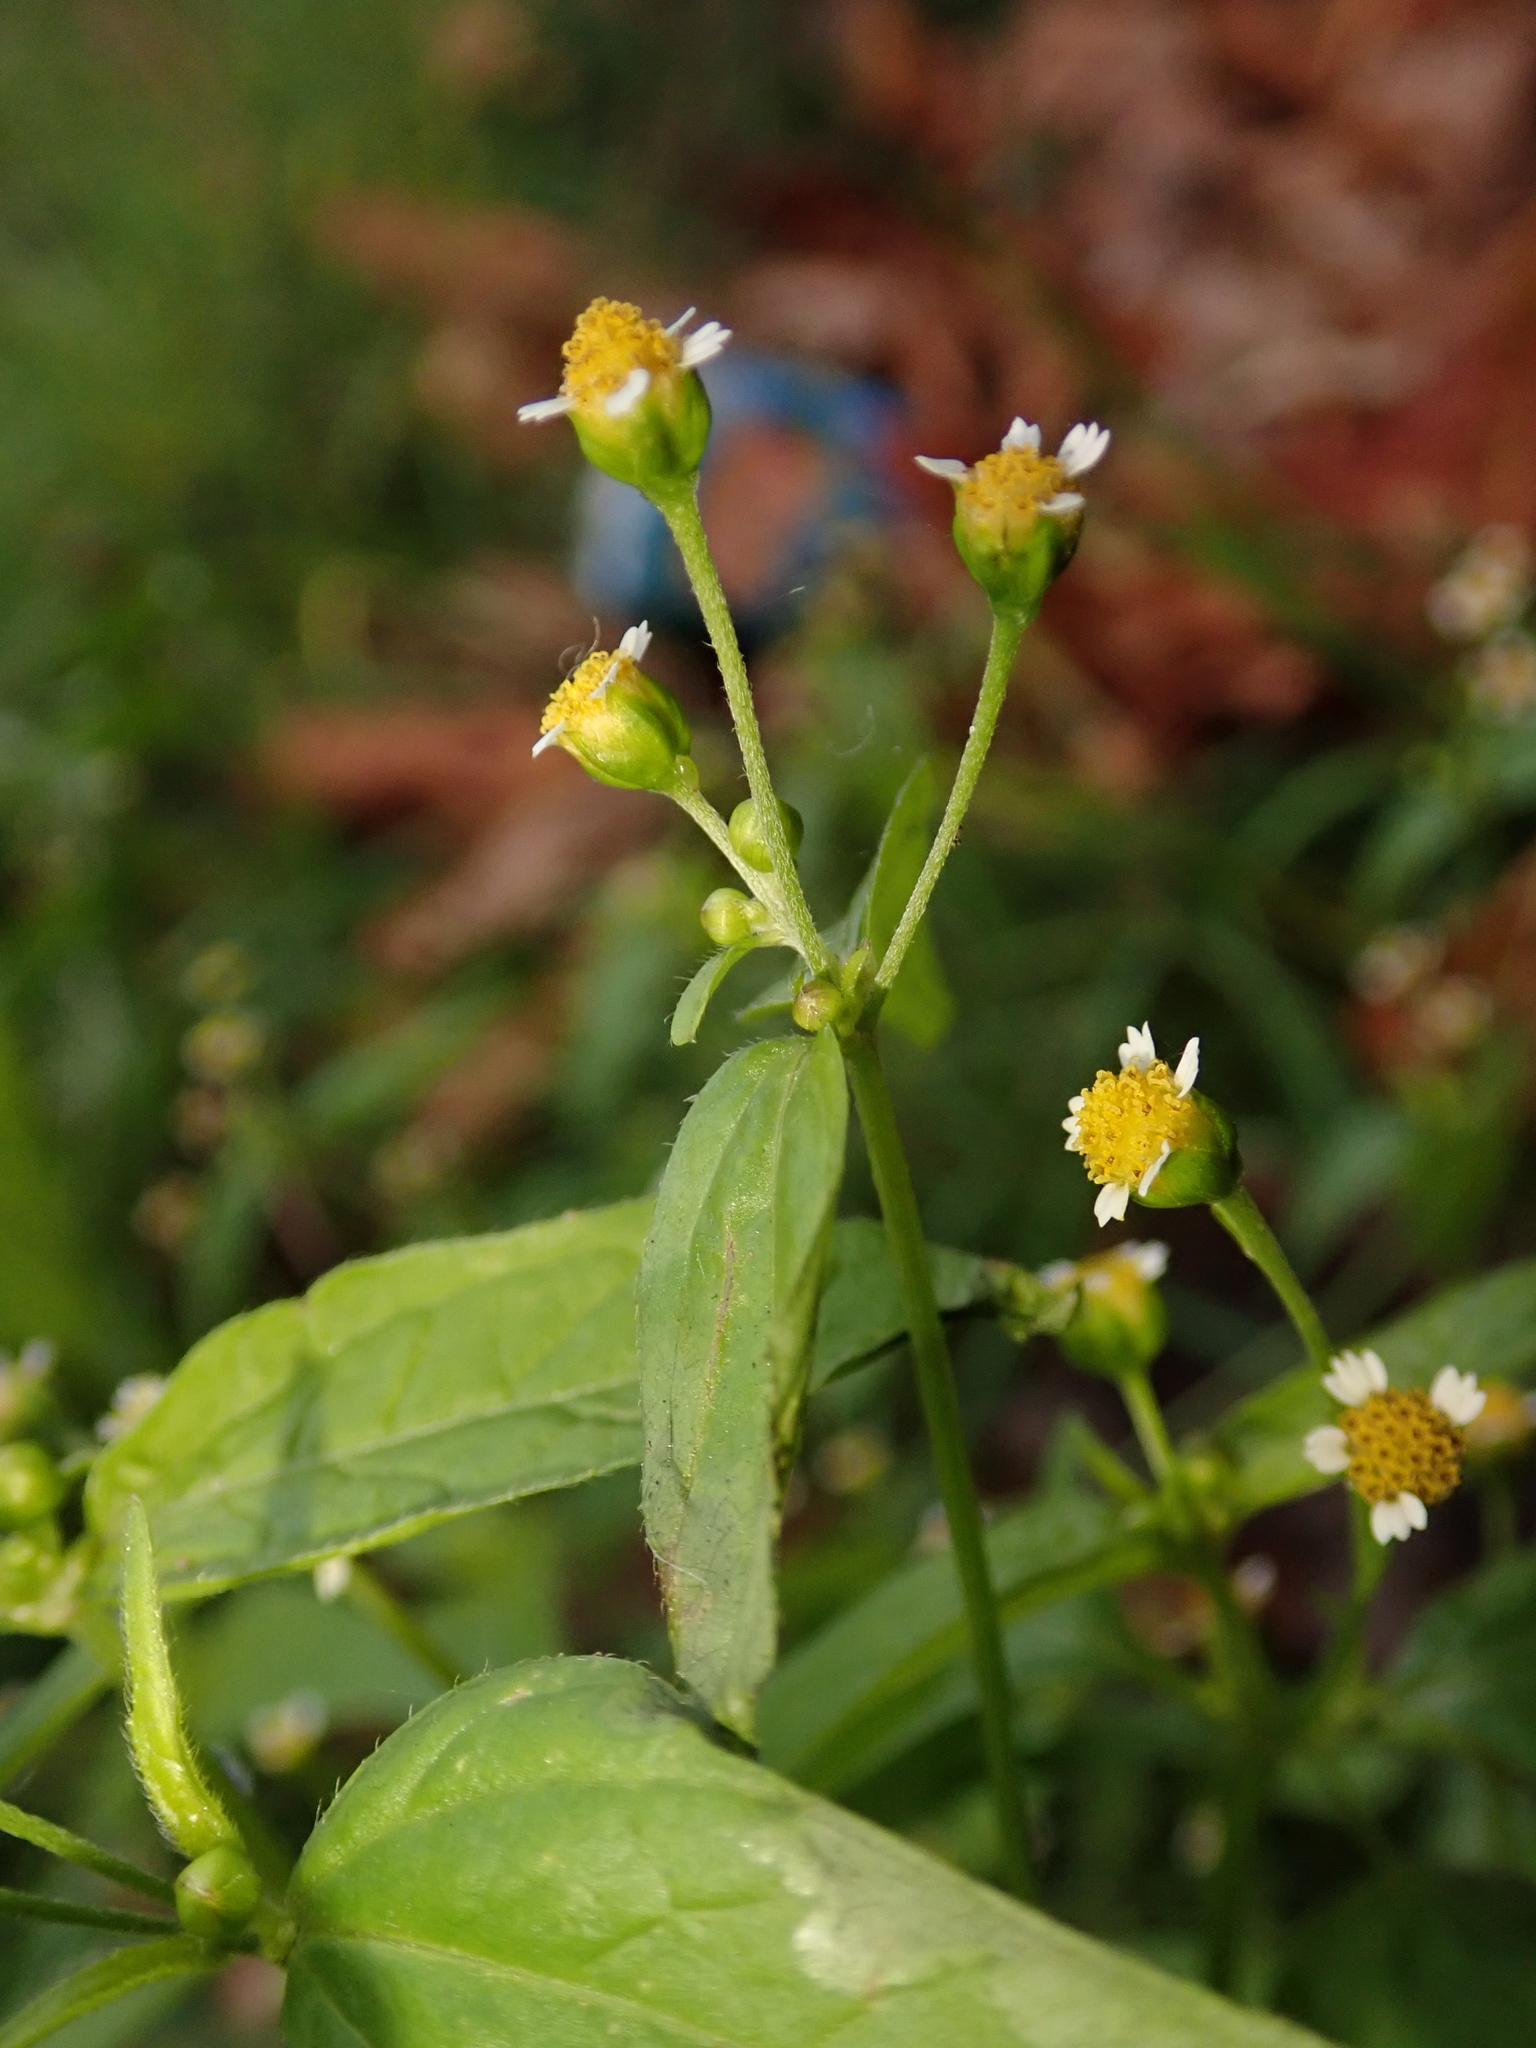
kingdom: Plantae
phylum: Tracheophyta
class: Magnoliopsida
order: Asterales
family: Asteraceae
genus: Galinsoga
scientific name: Galinsoga parviflora
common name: Gallant soldier
